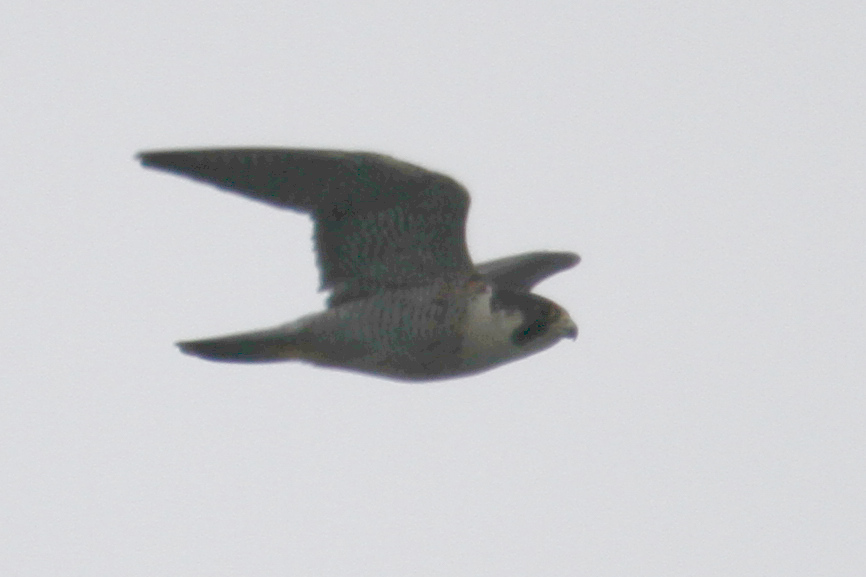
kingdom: Animalia
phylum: Chordata
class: Aves
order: Falconiformes
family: Falconidae
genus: Falco
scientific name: Falco peregrinus
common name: Peregrine falcon
